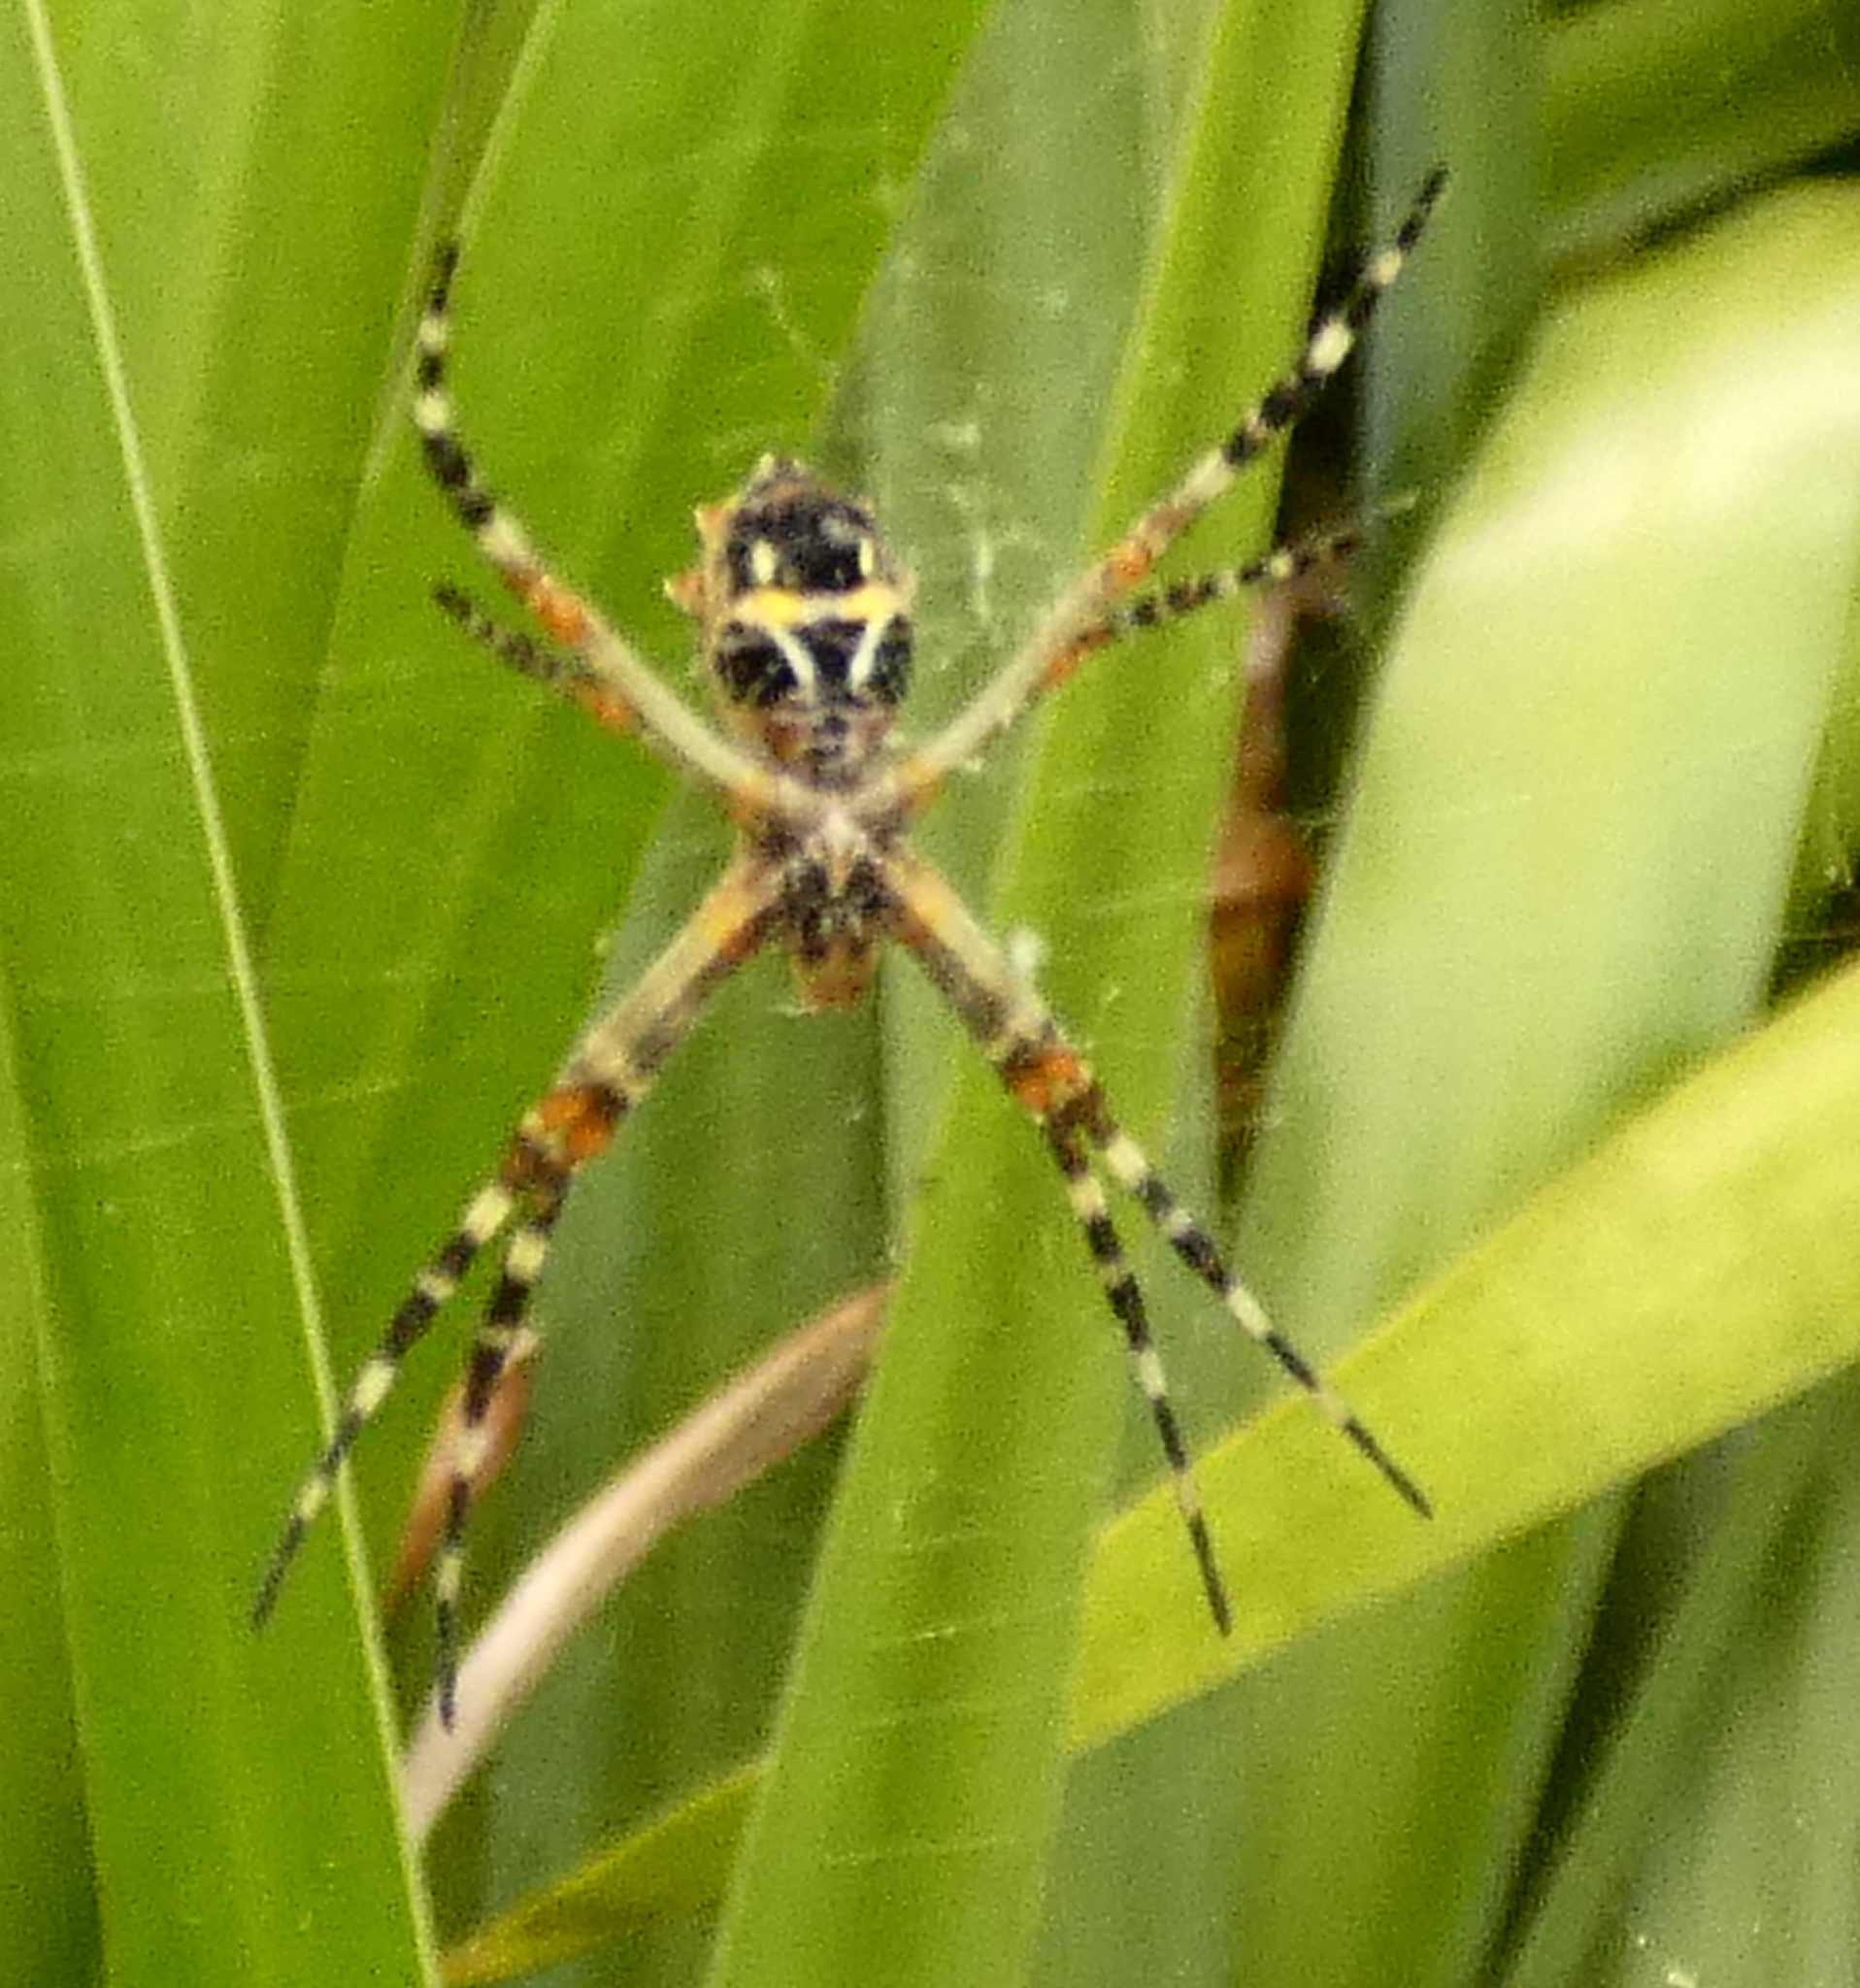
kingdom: Animalia
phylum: Arthropoda
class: Arachnida
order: Araneae
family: Araneidae
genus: Argiope
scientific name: Argiope argentata
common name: Orb weavers
